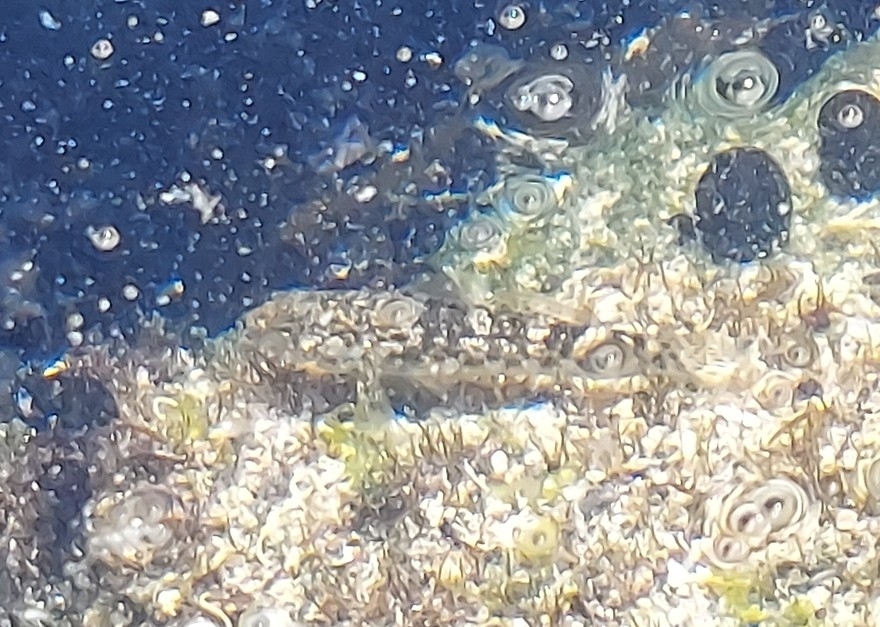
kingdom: Animalia
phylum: Chordata
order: Perciformes
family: Gobiidae
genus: Bathygobius
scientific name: Bathygobius
